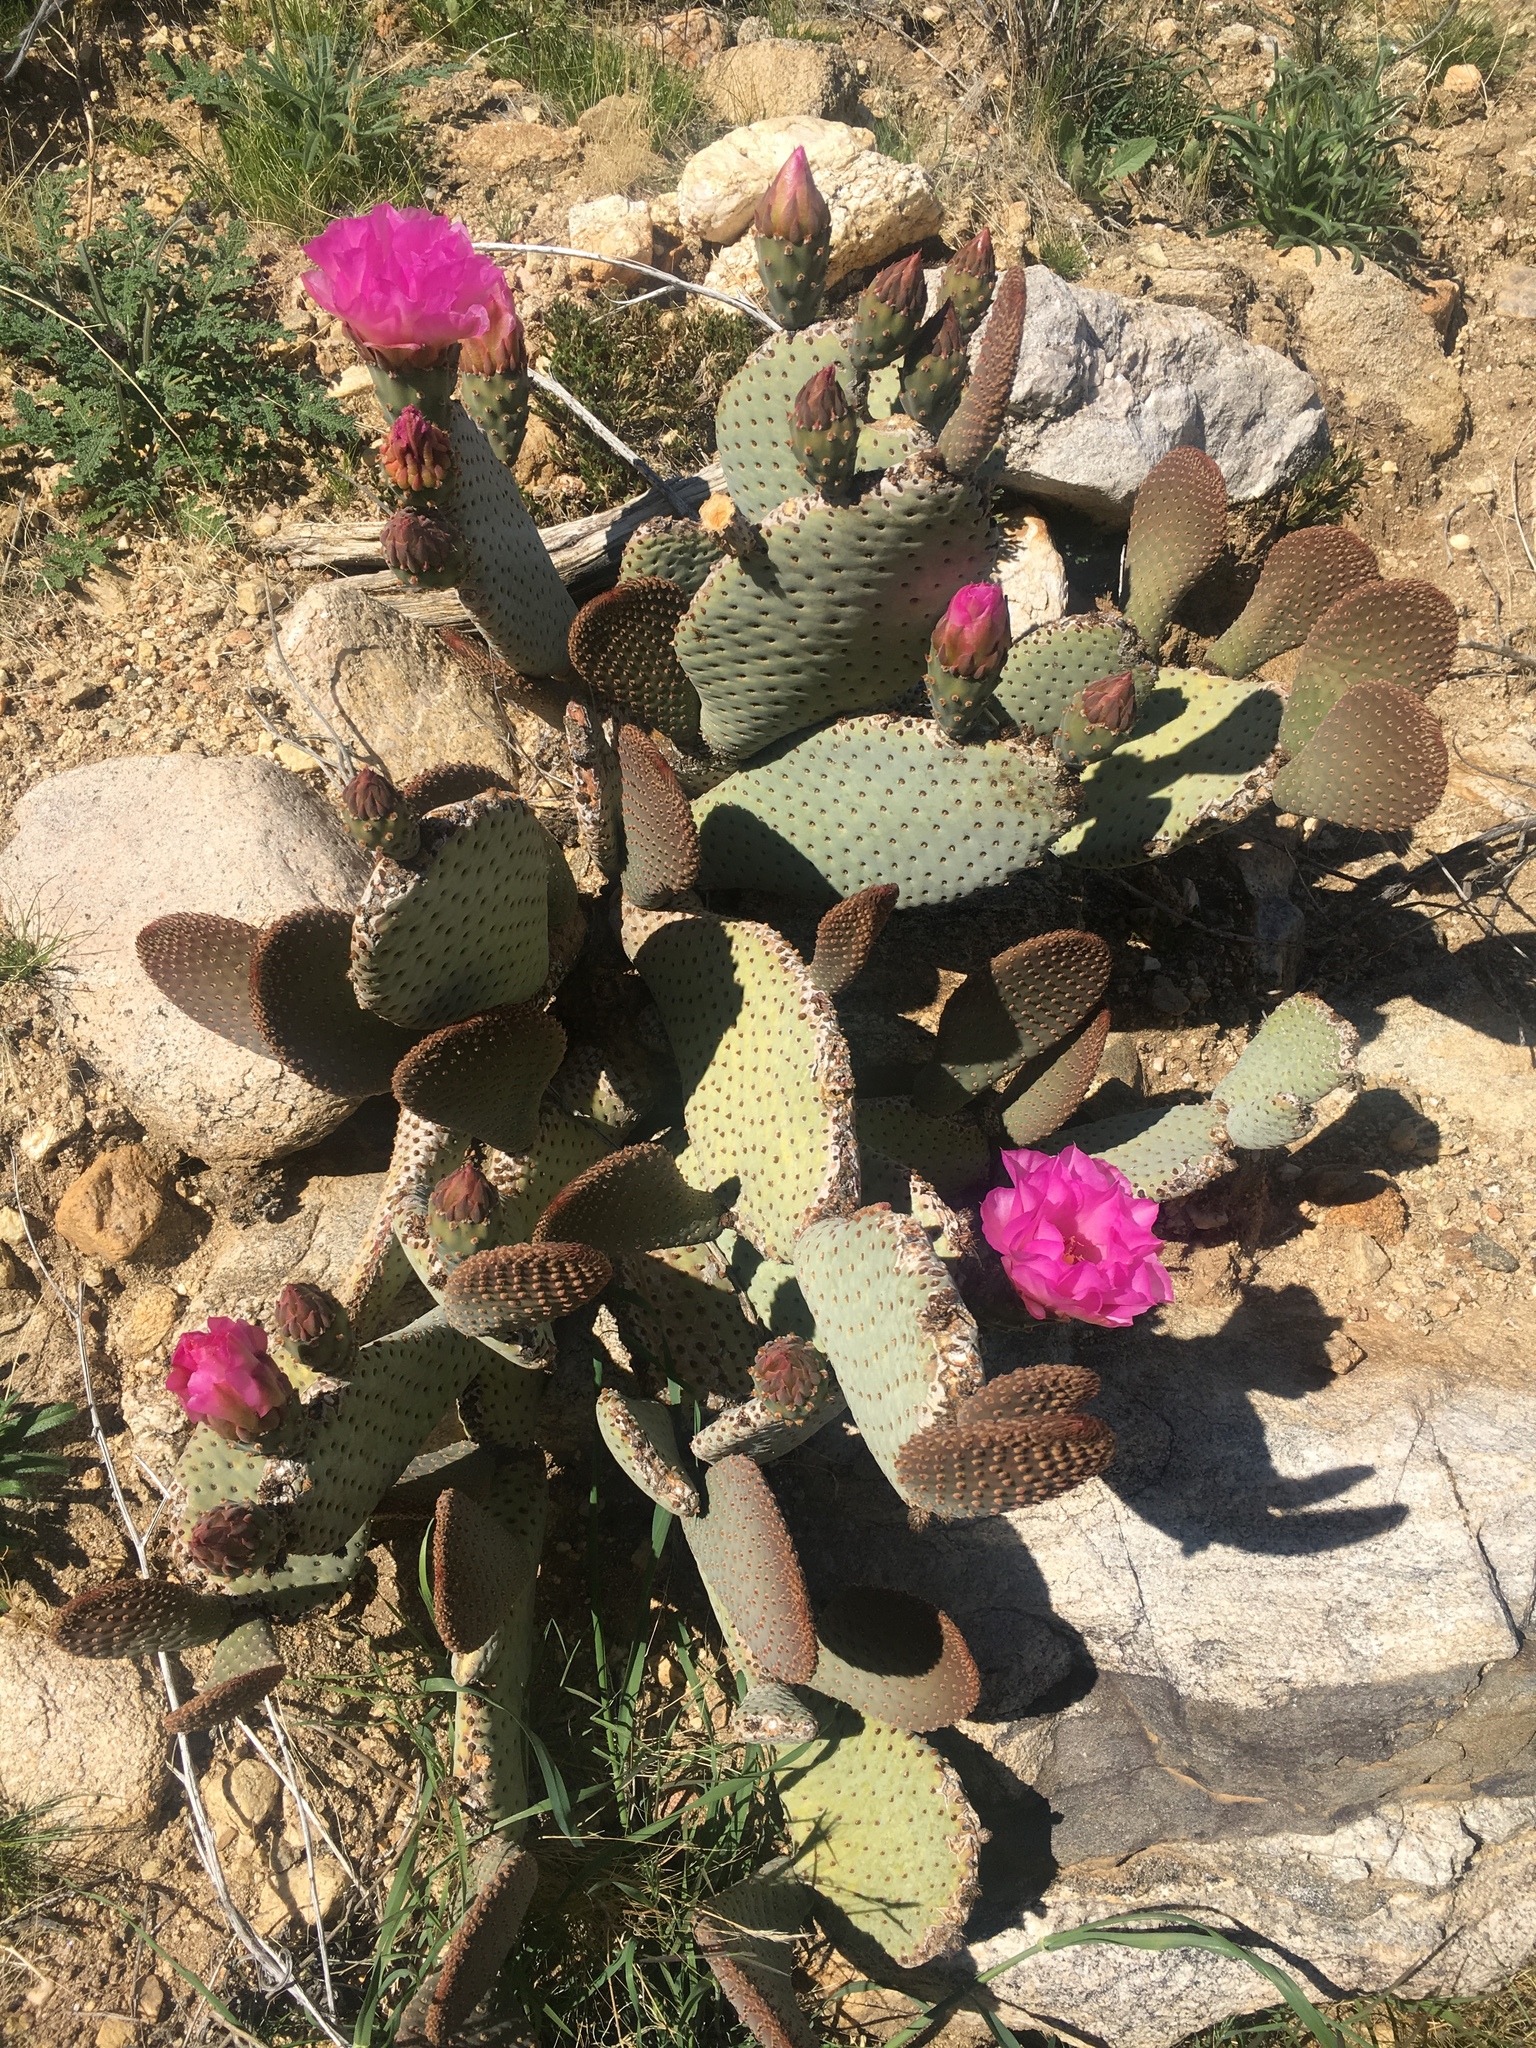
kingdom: Plantae
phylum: Tracheophyta
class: Magnoliopsida
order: Caryophyllales
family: Cactaceae
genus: Opuntia
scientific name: Opuntia basilaris
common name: Beavertail prickly-pear
